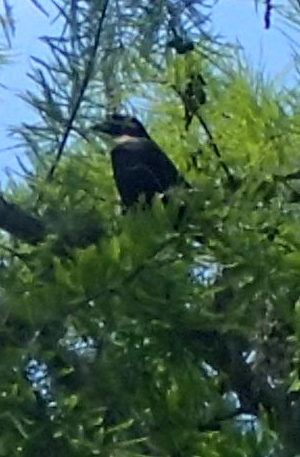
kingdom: Animalia
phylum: Chordata
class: Aves
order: Passeriformes
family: Icteridae
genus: Quiscalus
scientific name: Quiscalus quiscula
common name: Common grackle
